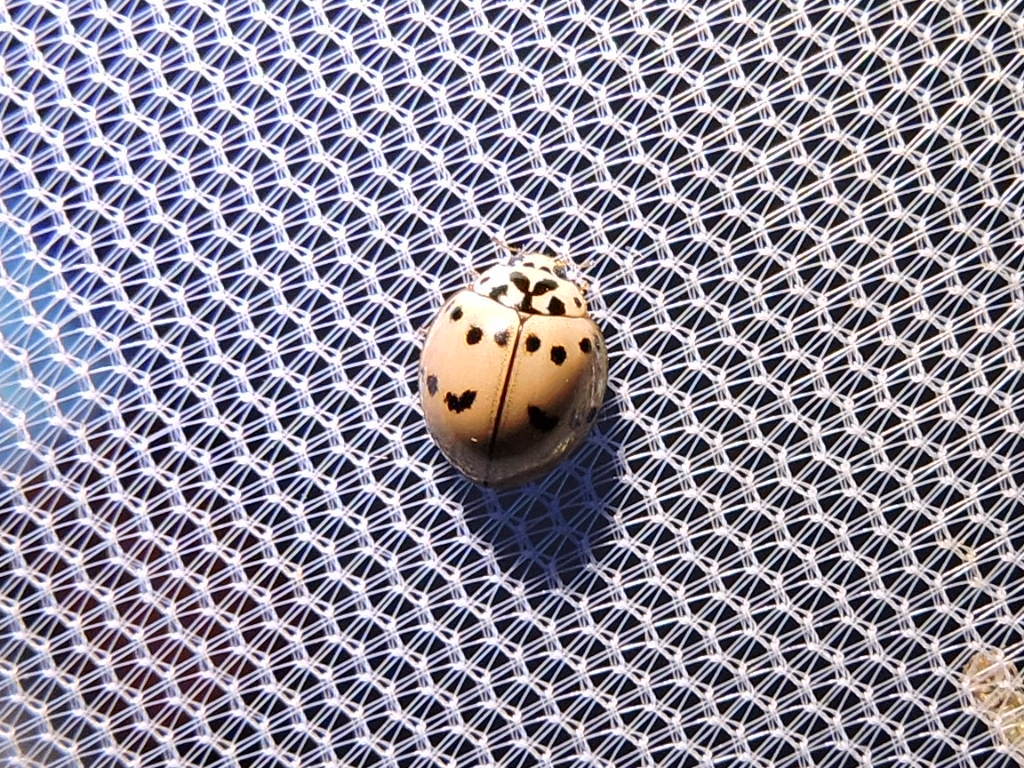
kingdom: Animalia
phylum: Arthropoda
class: Insecta
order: Coleoptera
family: Coccinellidae
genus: Olla
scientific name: Olla v-nigrum
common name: Ashy gray lady beetle
